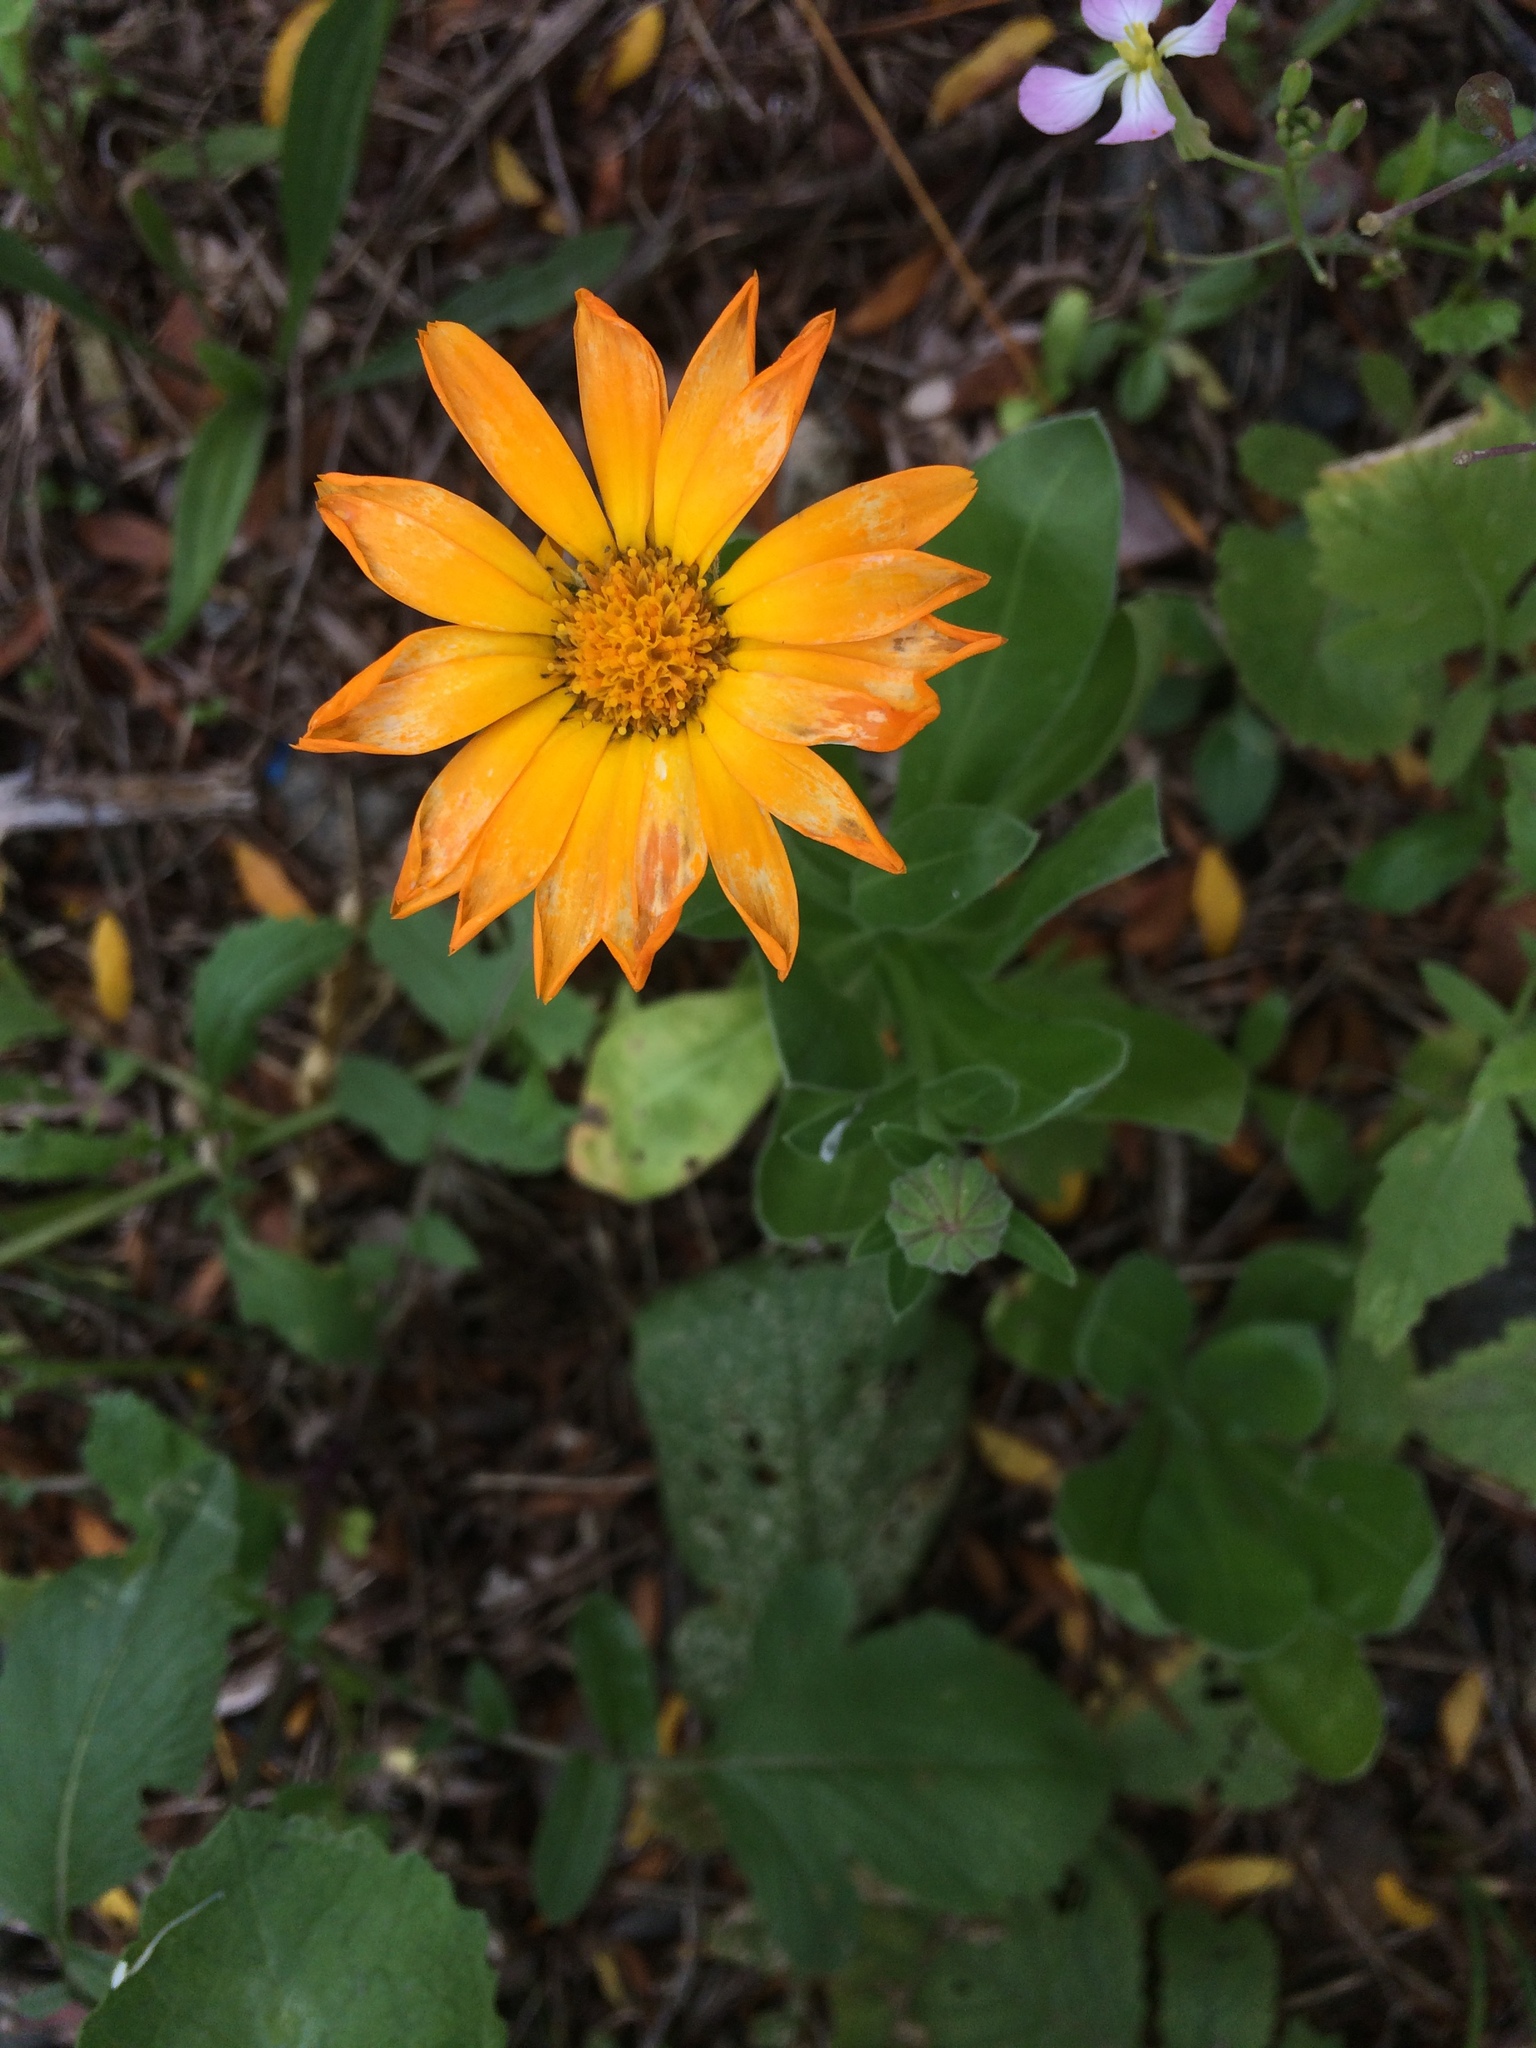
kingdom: Plantae
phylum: Tracheophyta
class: Magnoliopsida
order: Asterales
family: Asteraceae
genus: Calendula
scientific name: Calendula officinalis
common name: Pot marigold
